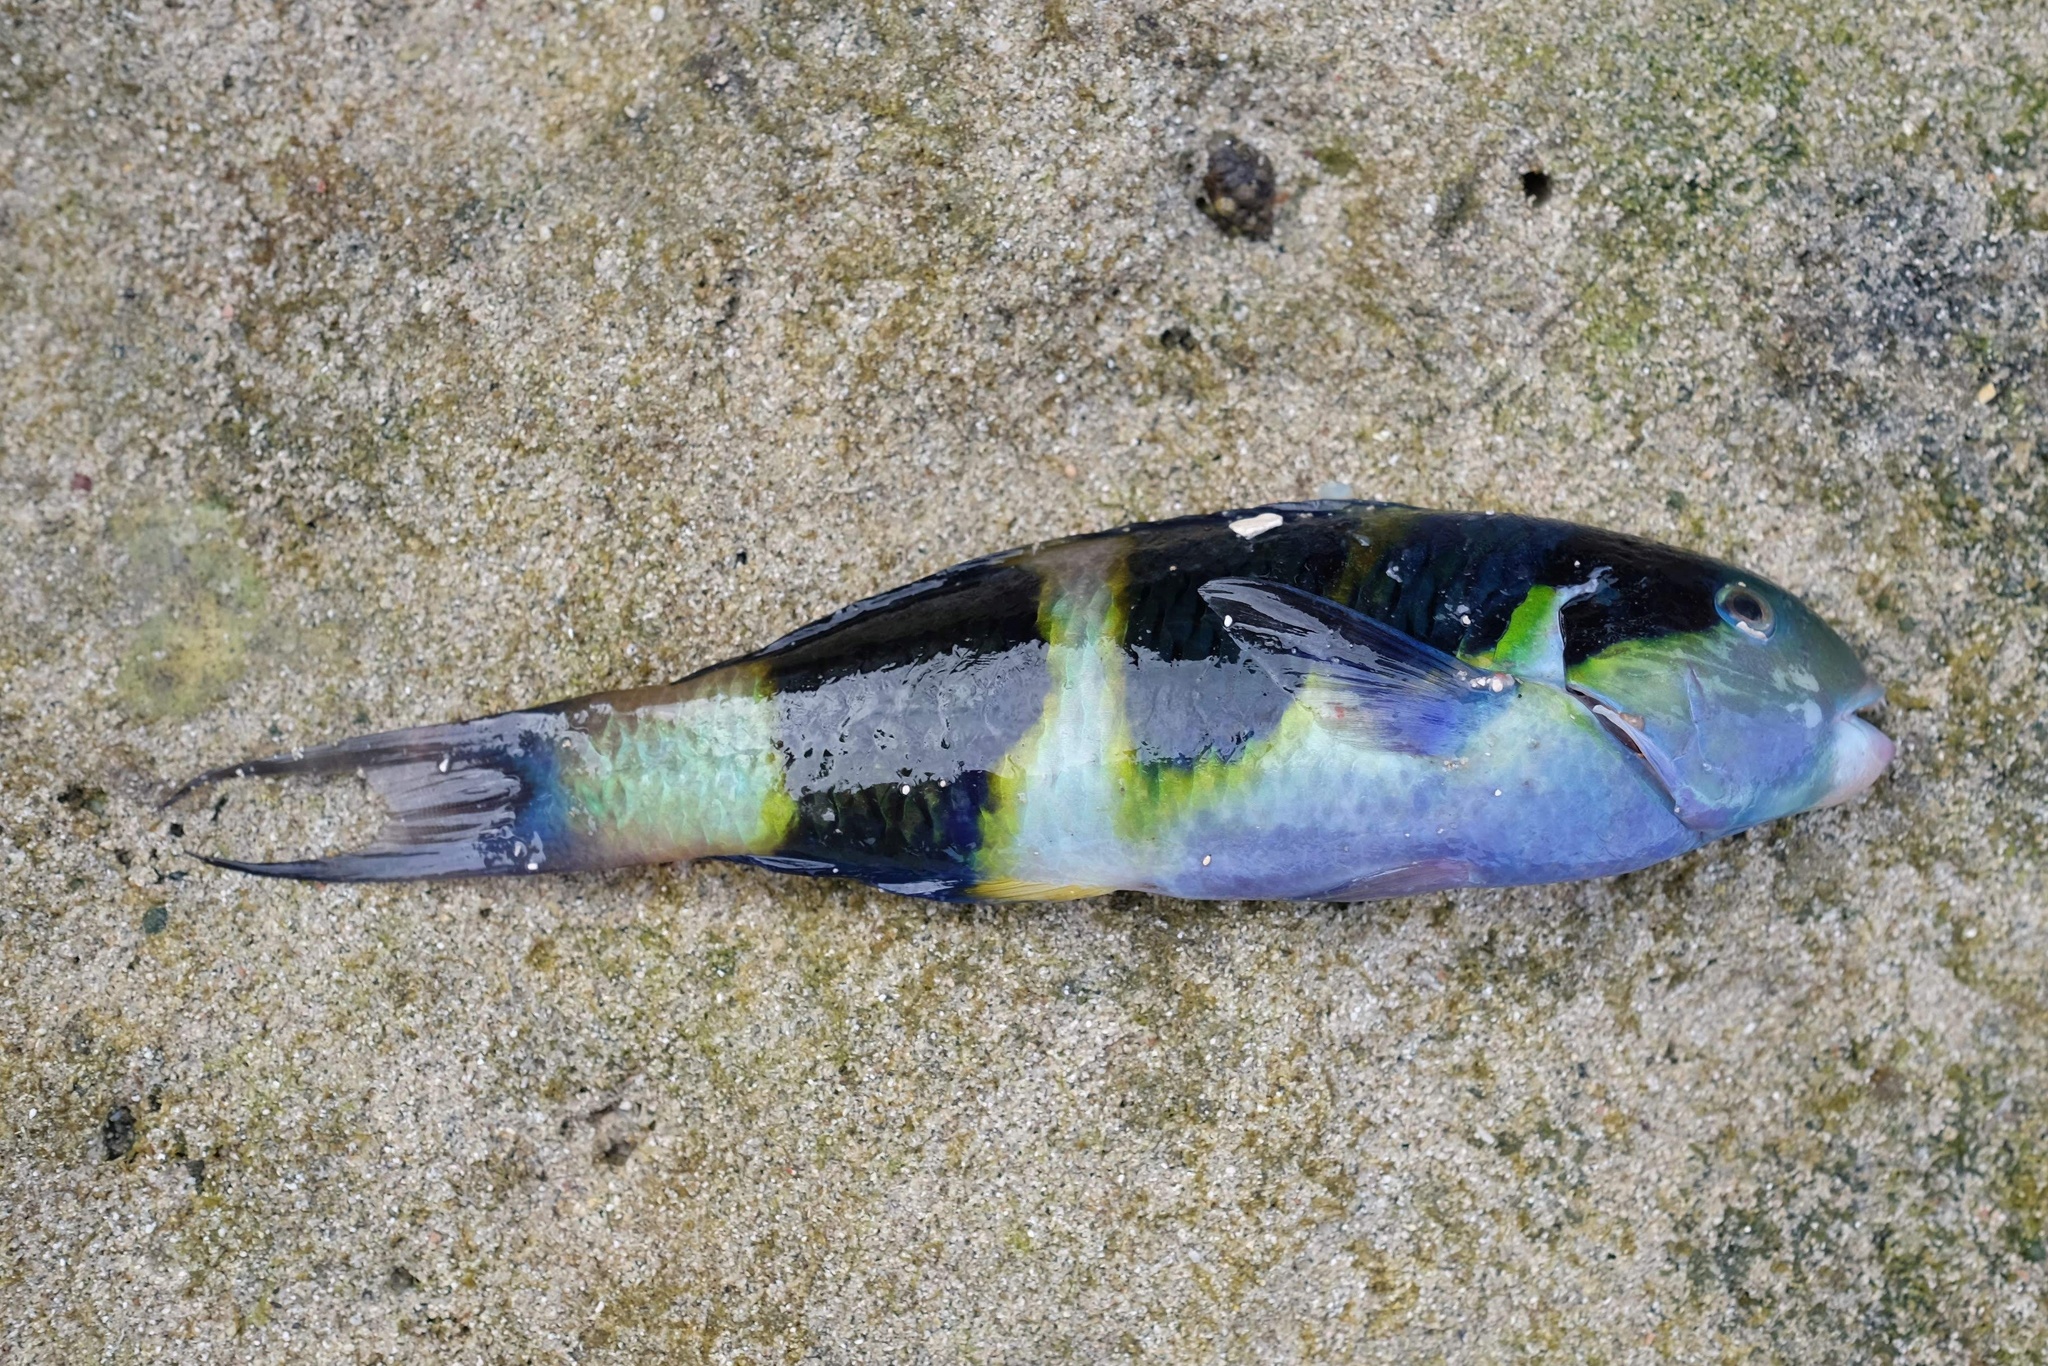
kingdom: Animalia
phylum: Chordata
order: Perciformes
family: Labridae
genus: Thalassoma
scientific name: Thalassoma nigrofasciatum
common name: Black-barred wrasse
